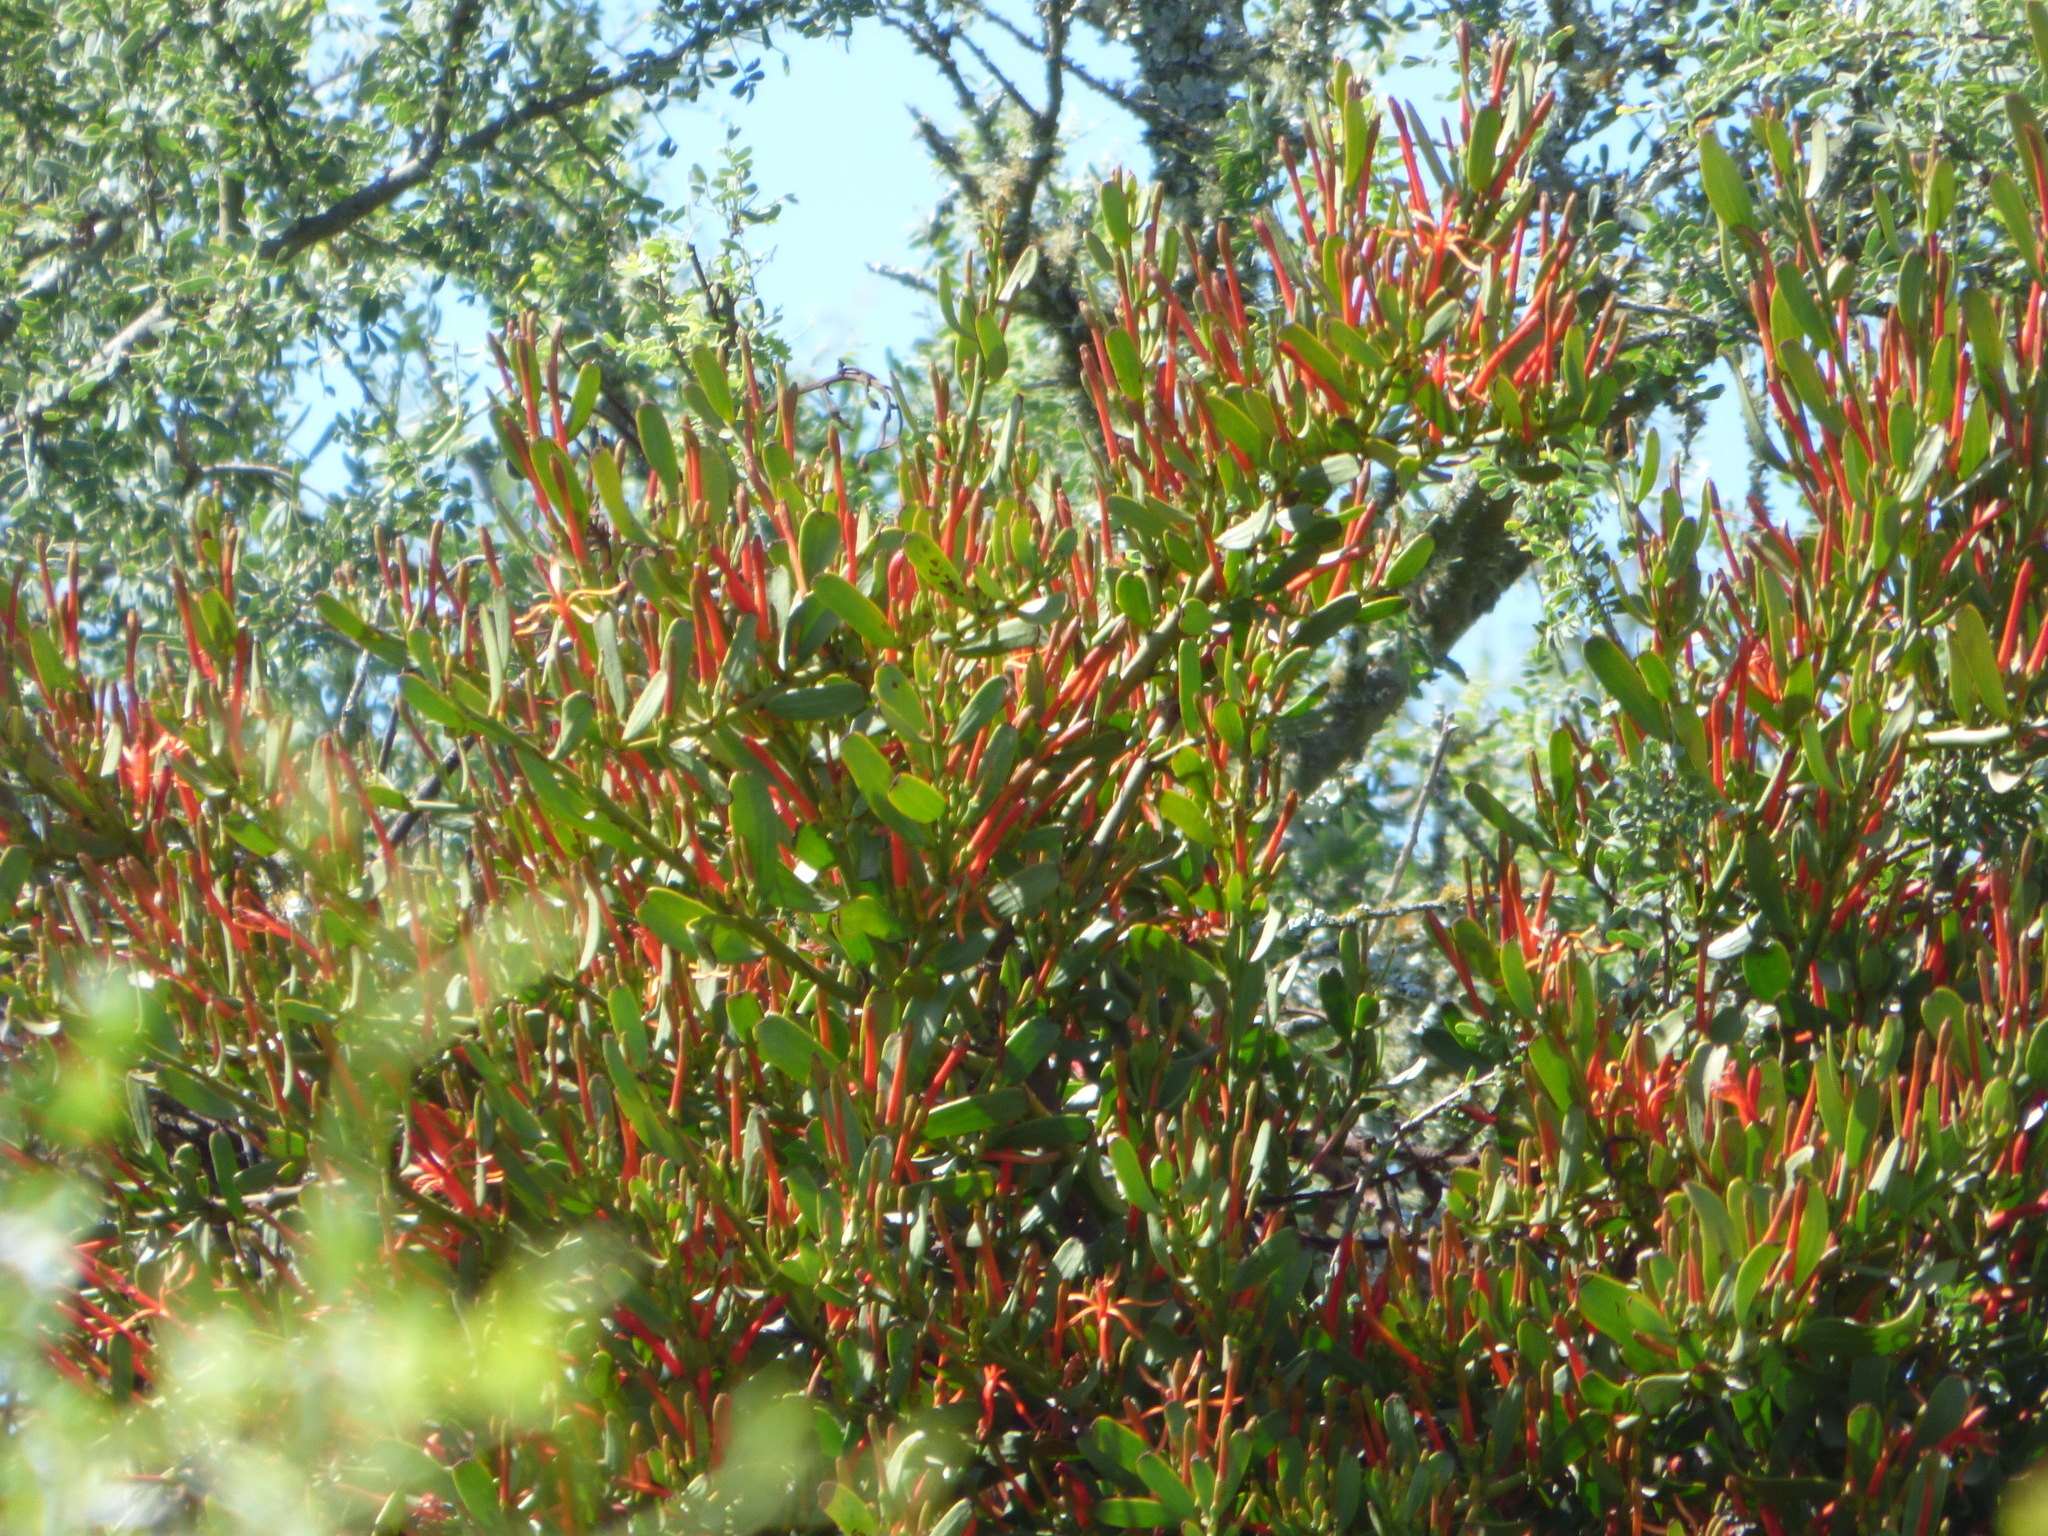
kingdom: Plantae
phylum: Tracheophyta
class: Magnoliopsida
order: Santalales
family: Loranthaceae
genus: Ligaria
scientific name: Ligaria cuneifolia
